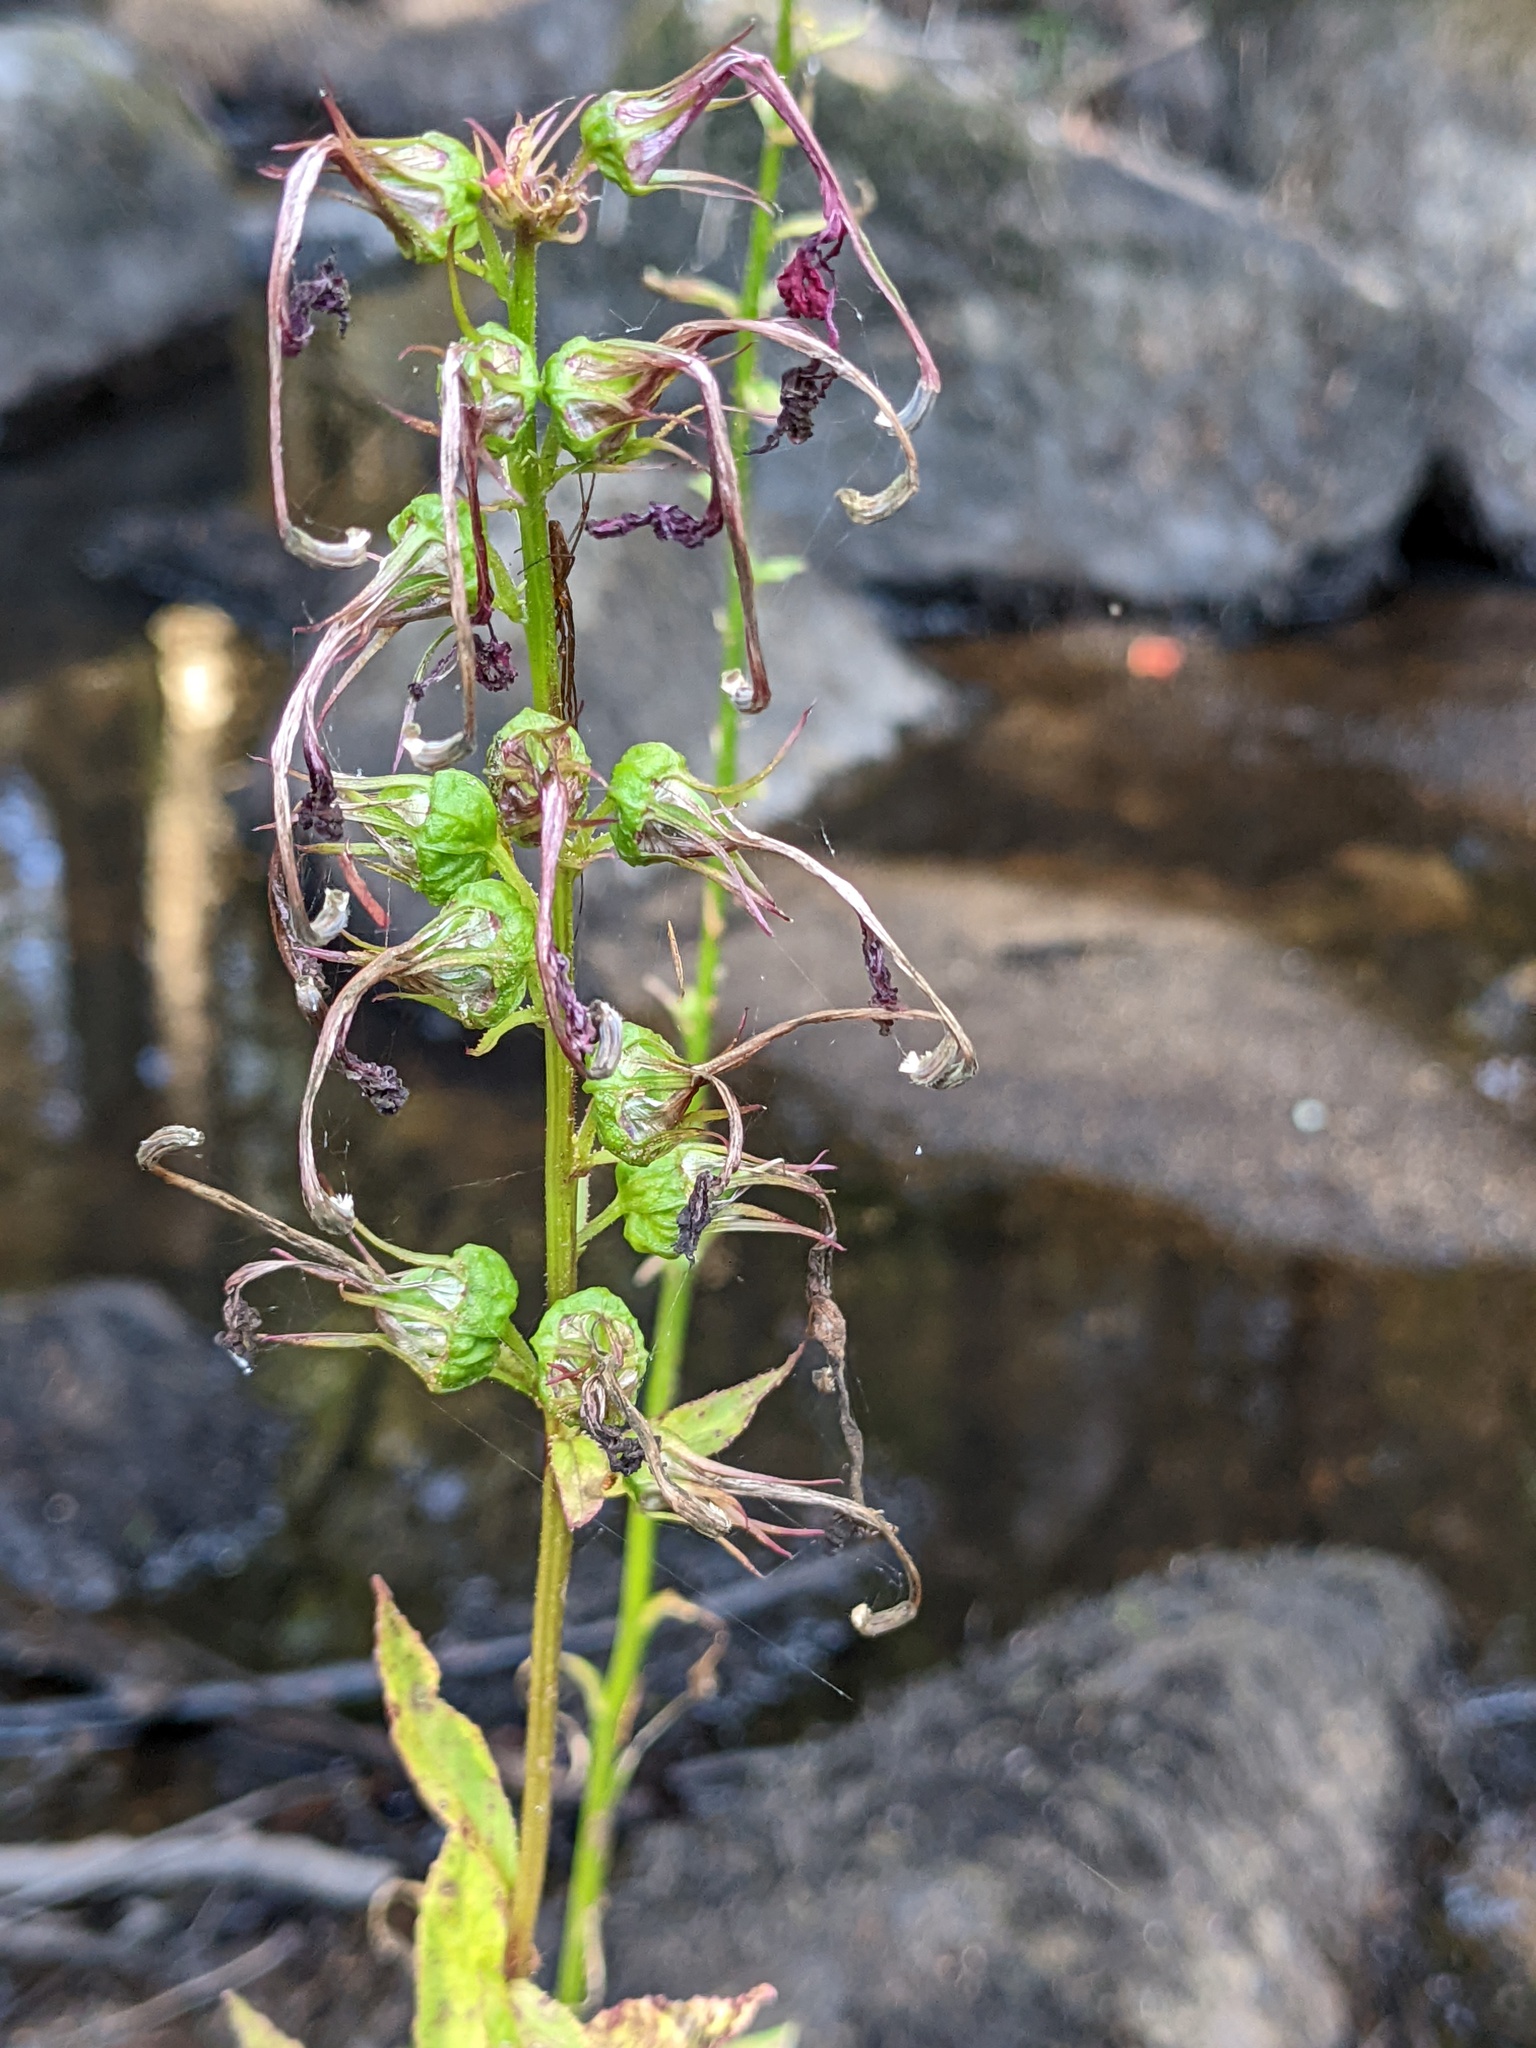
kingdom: Plantae
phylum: Tracheophyta
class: Magnoliopsida
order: Asterales
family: Campanulaceae
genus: Lobelia
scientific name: Lobelia cardinalis
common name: Cardinal flower
